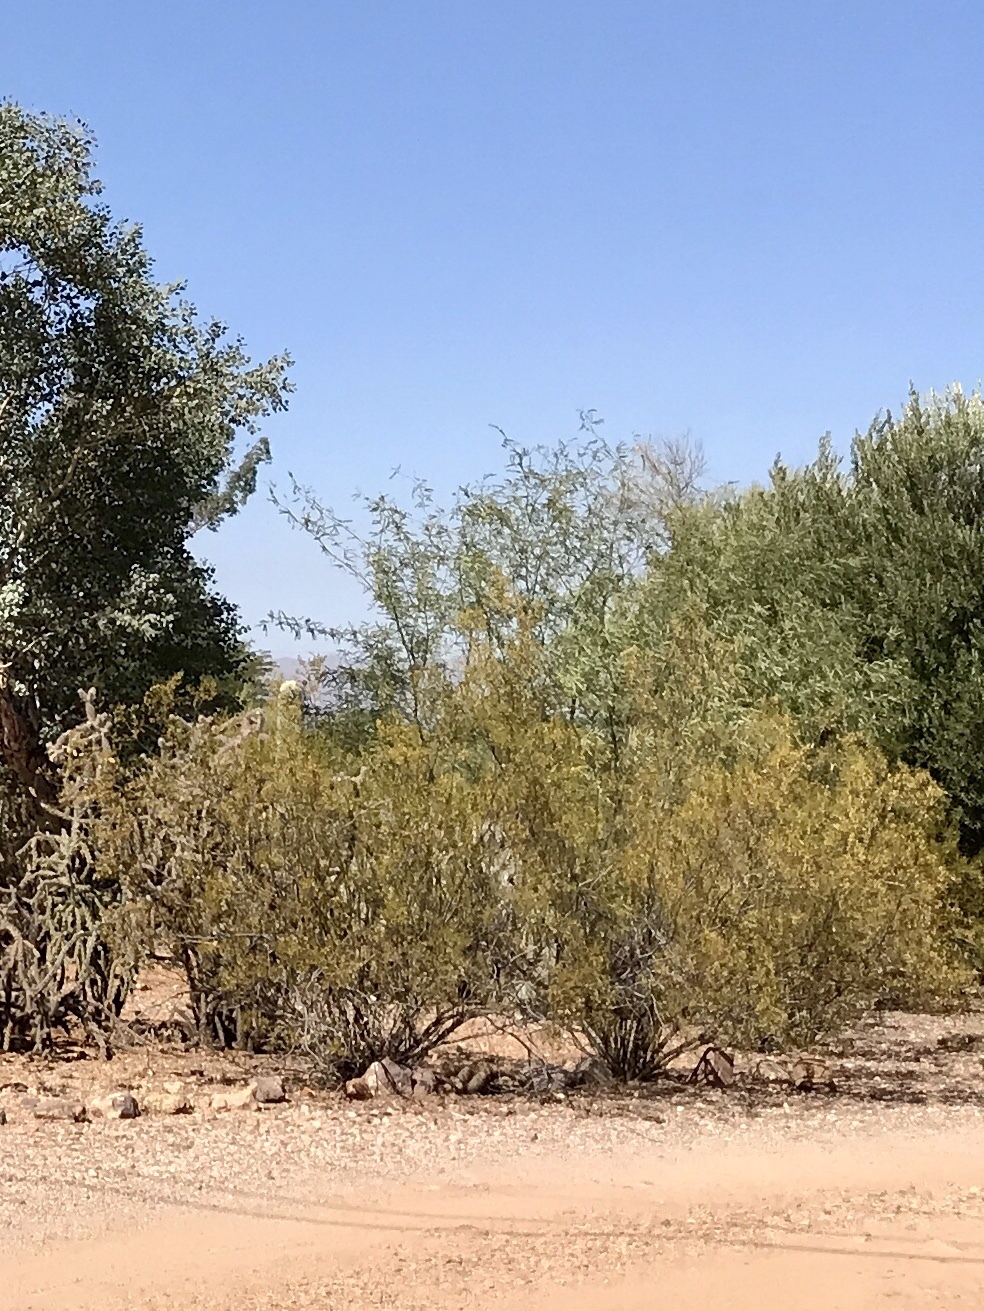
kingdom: Plantae
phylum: Tracheophyta
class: Magnoliopsida
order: Zygophyllales
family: Zygophyllaceae
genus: Larrea
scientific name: Larrea tridentata
